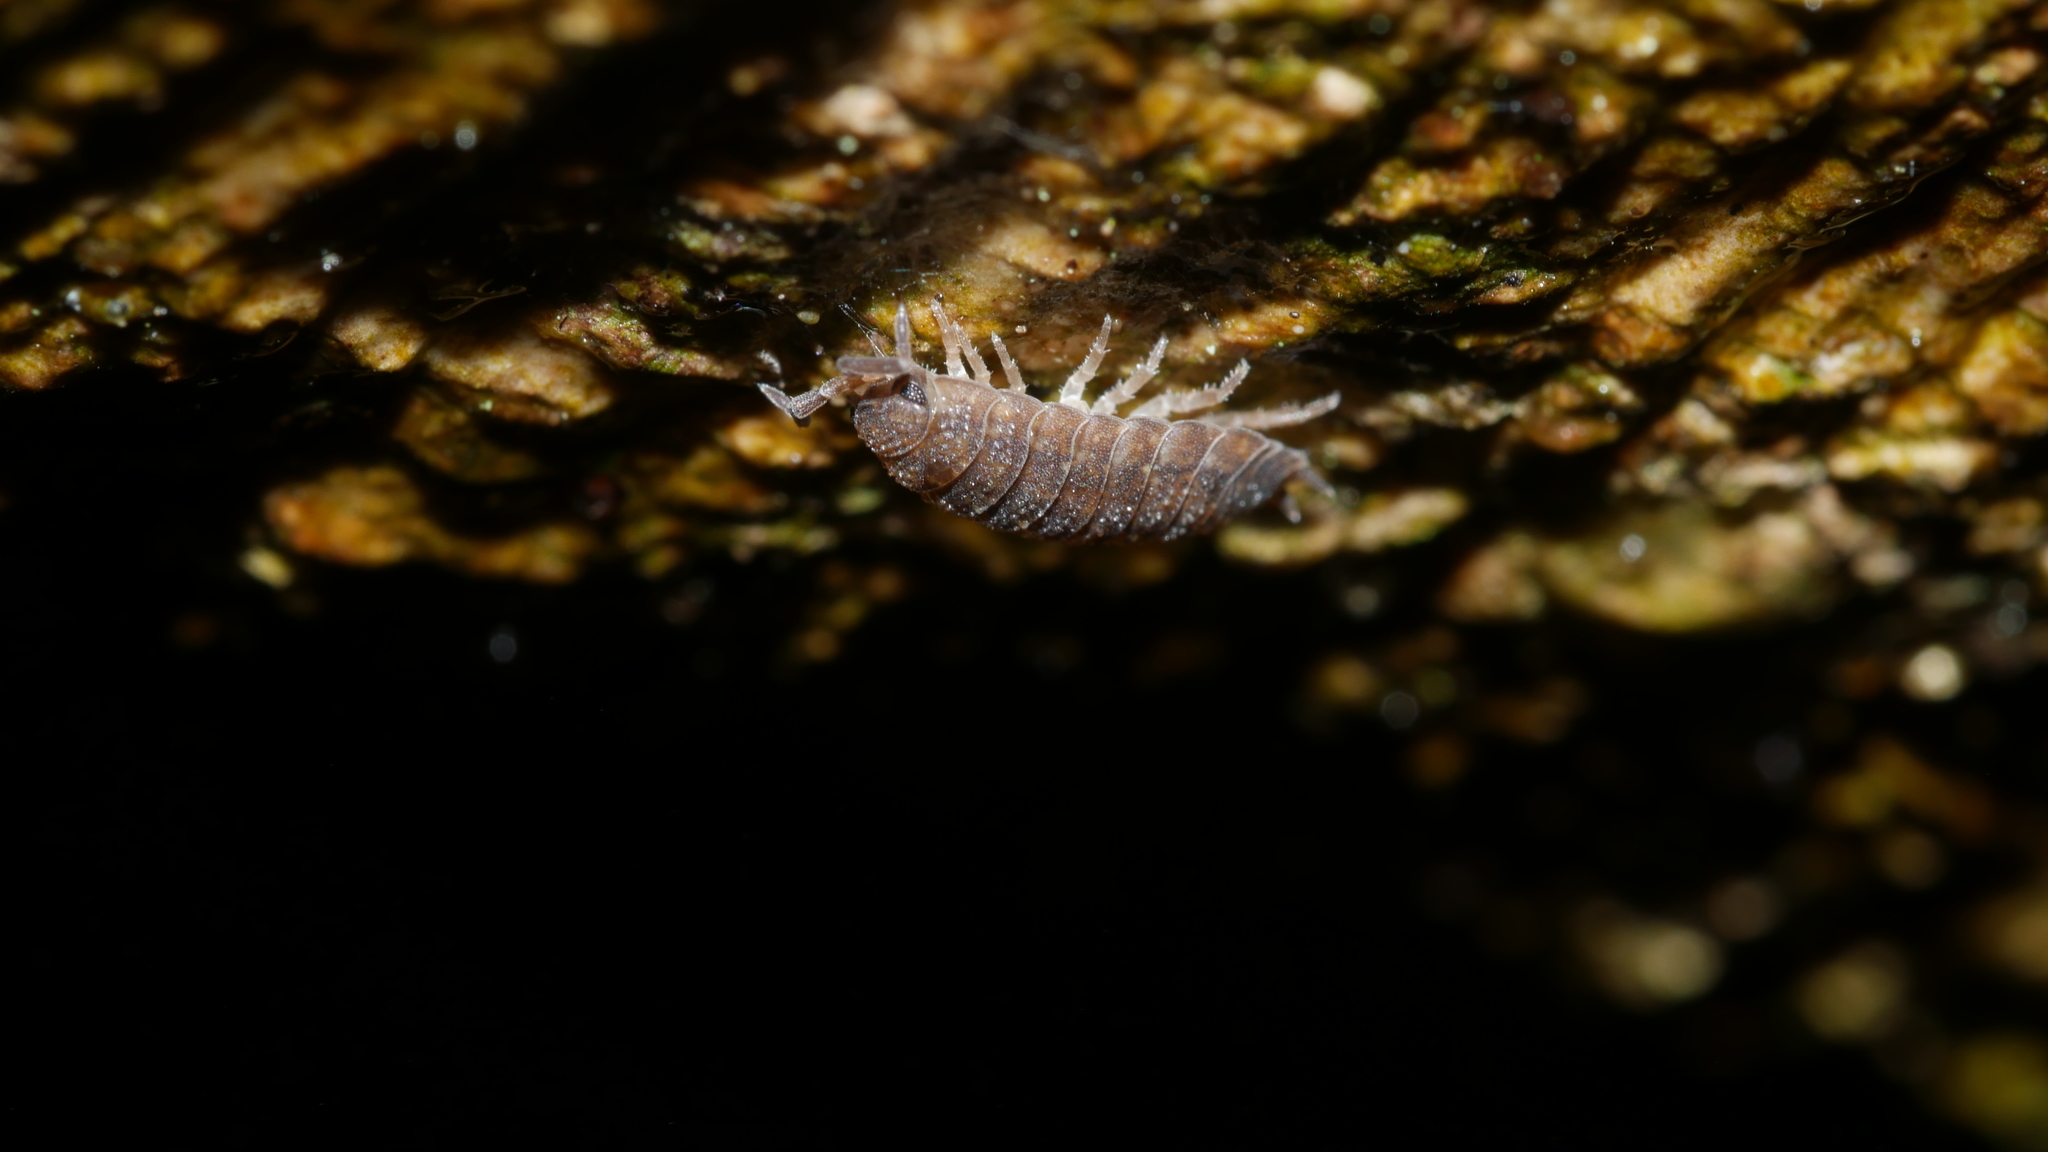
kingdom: Animalia
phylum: Arthropoda
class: Malacostraca
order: Isopoda
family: Porcellionidae
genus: Porcellio
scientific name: Porcellio scaber
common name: Common rough woodlouse
